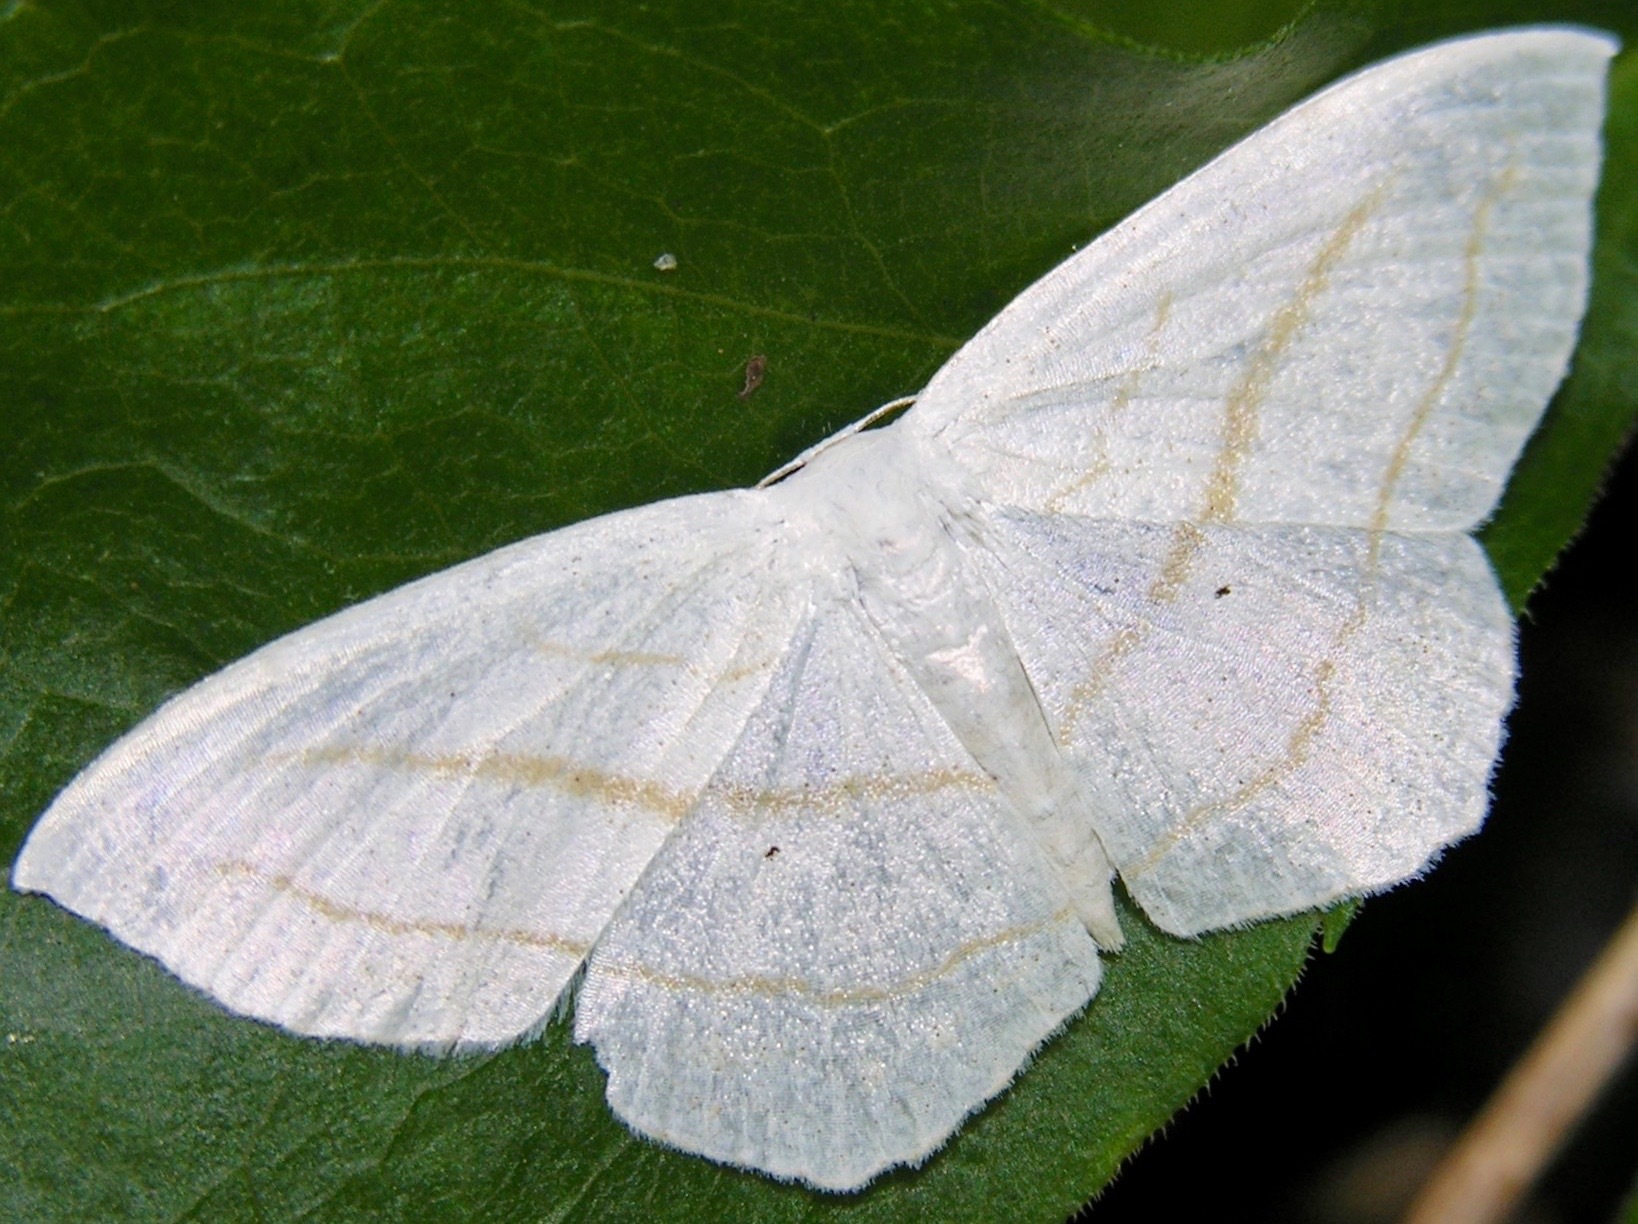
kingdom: Animalia
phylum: Arthropoda
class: Insecta
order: Lepidoptera
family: Geometridae
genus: Scopula
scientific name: Scopula ordinata
